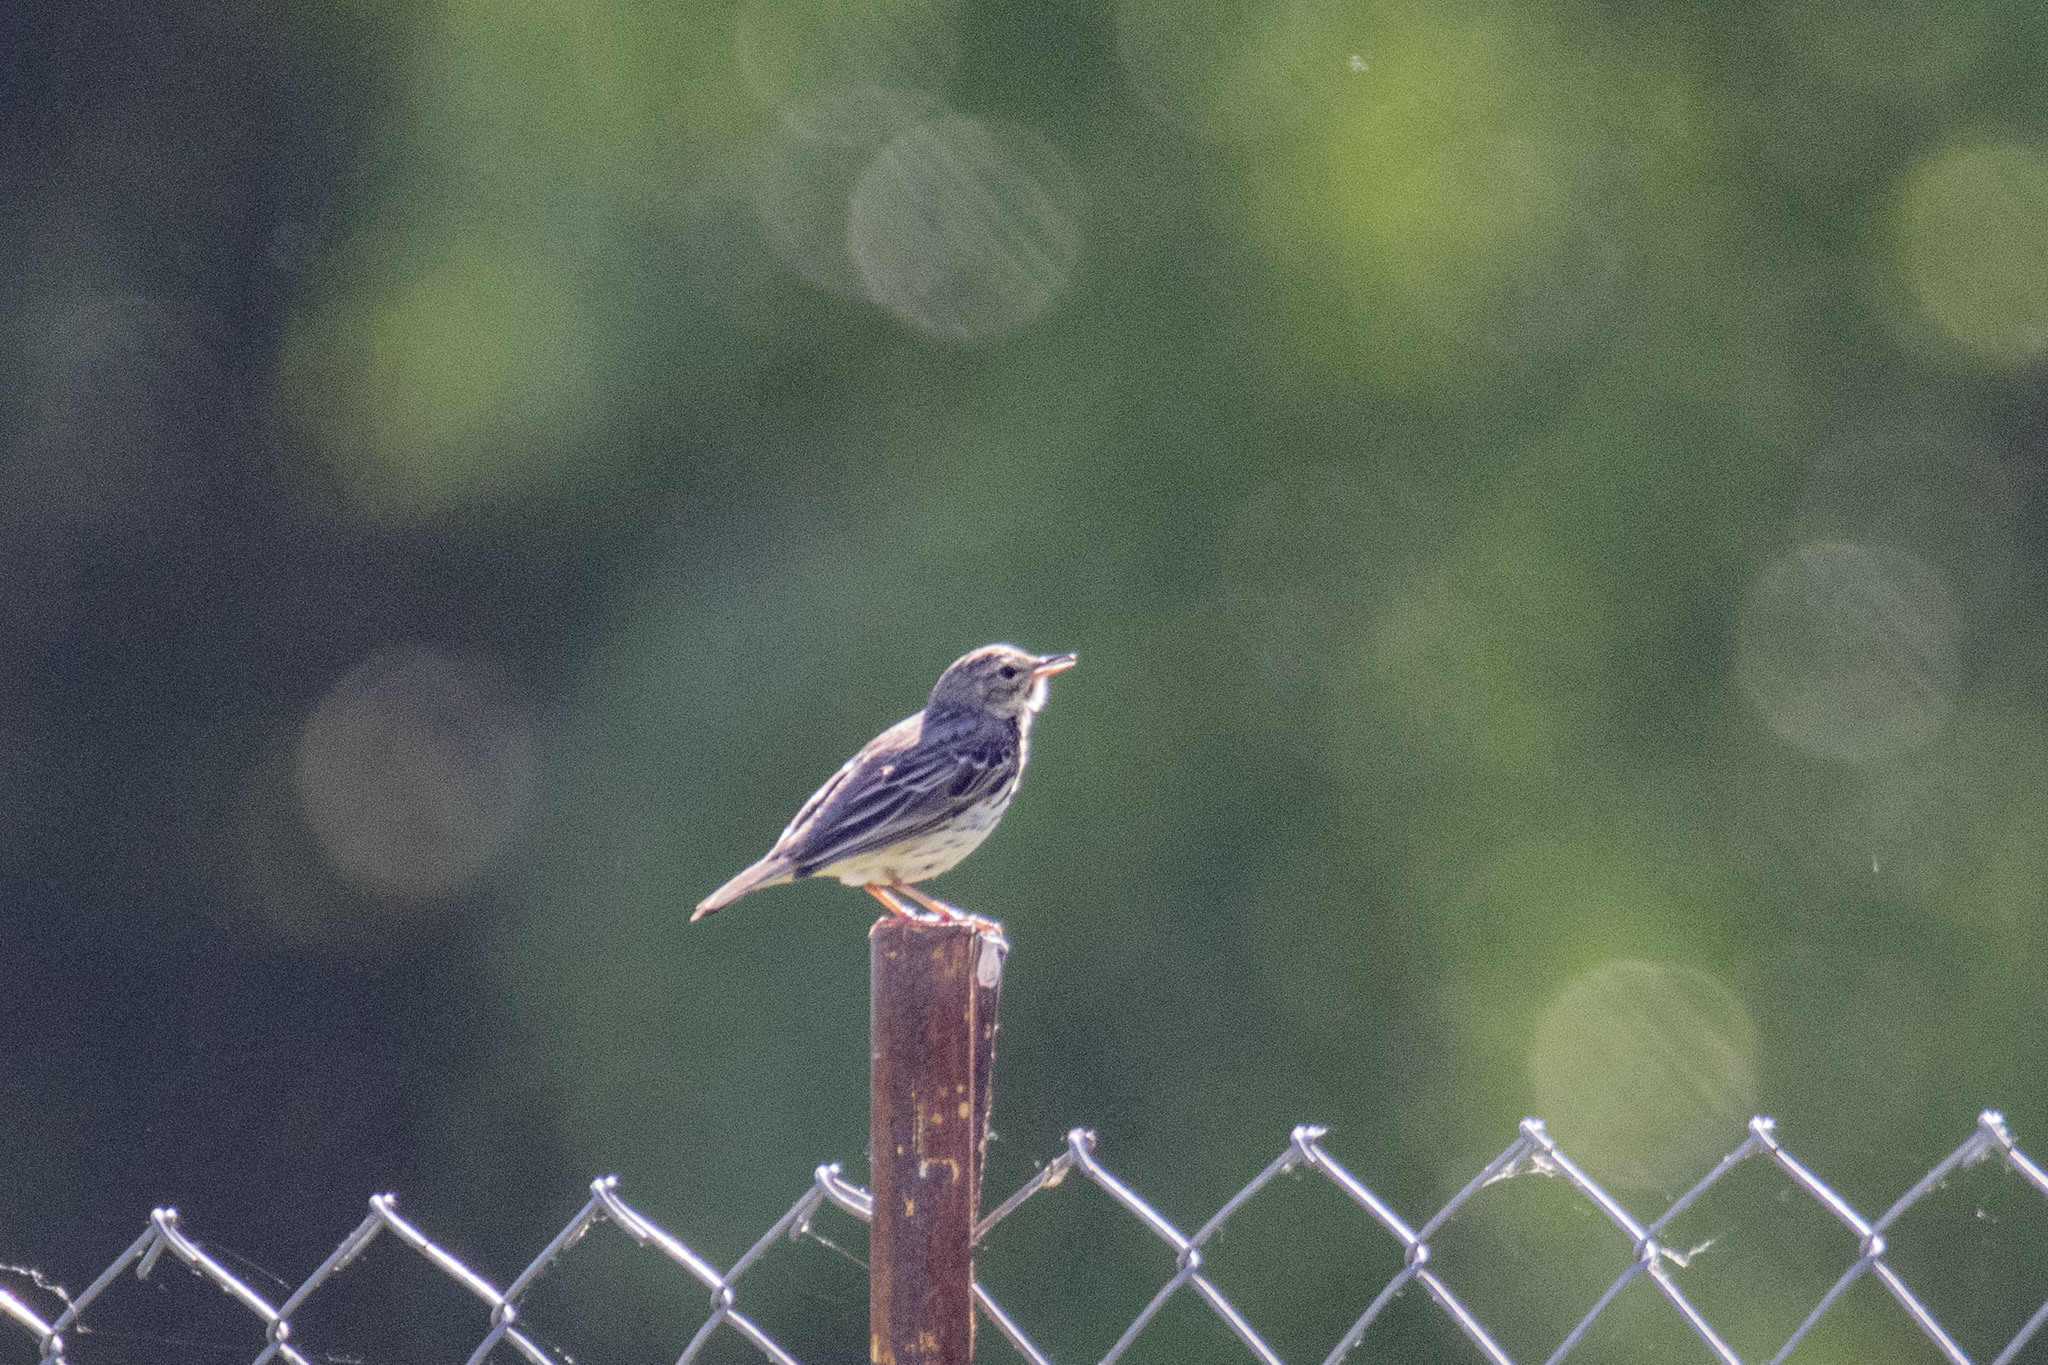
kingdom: Animalia
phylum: Chordata
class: Aves
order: Passeriformes
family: Motacillidae
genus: Anthus
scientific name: Anthus trivialis
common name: Tree pipit
